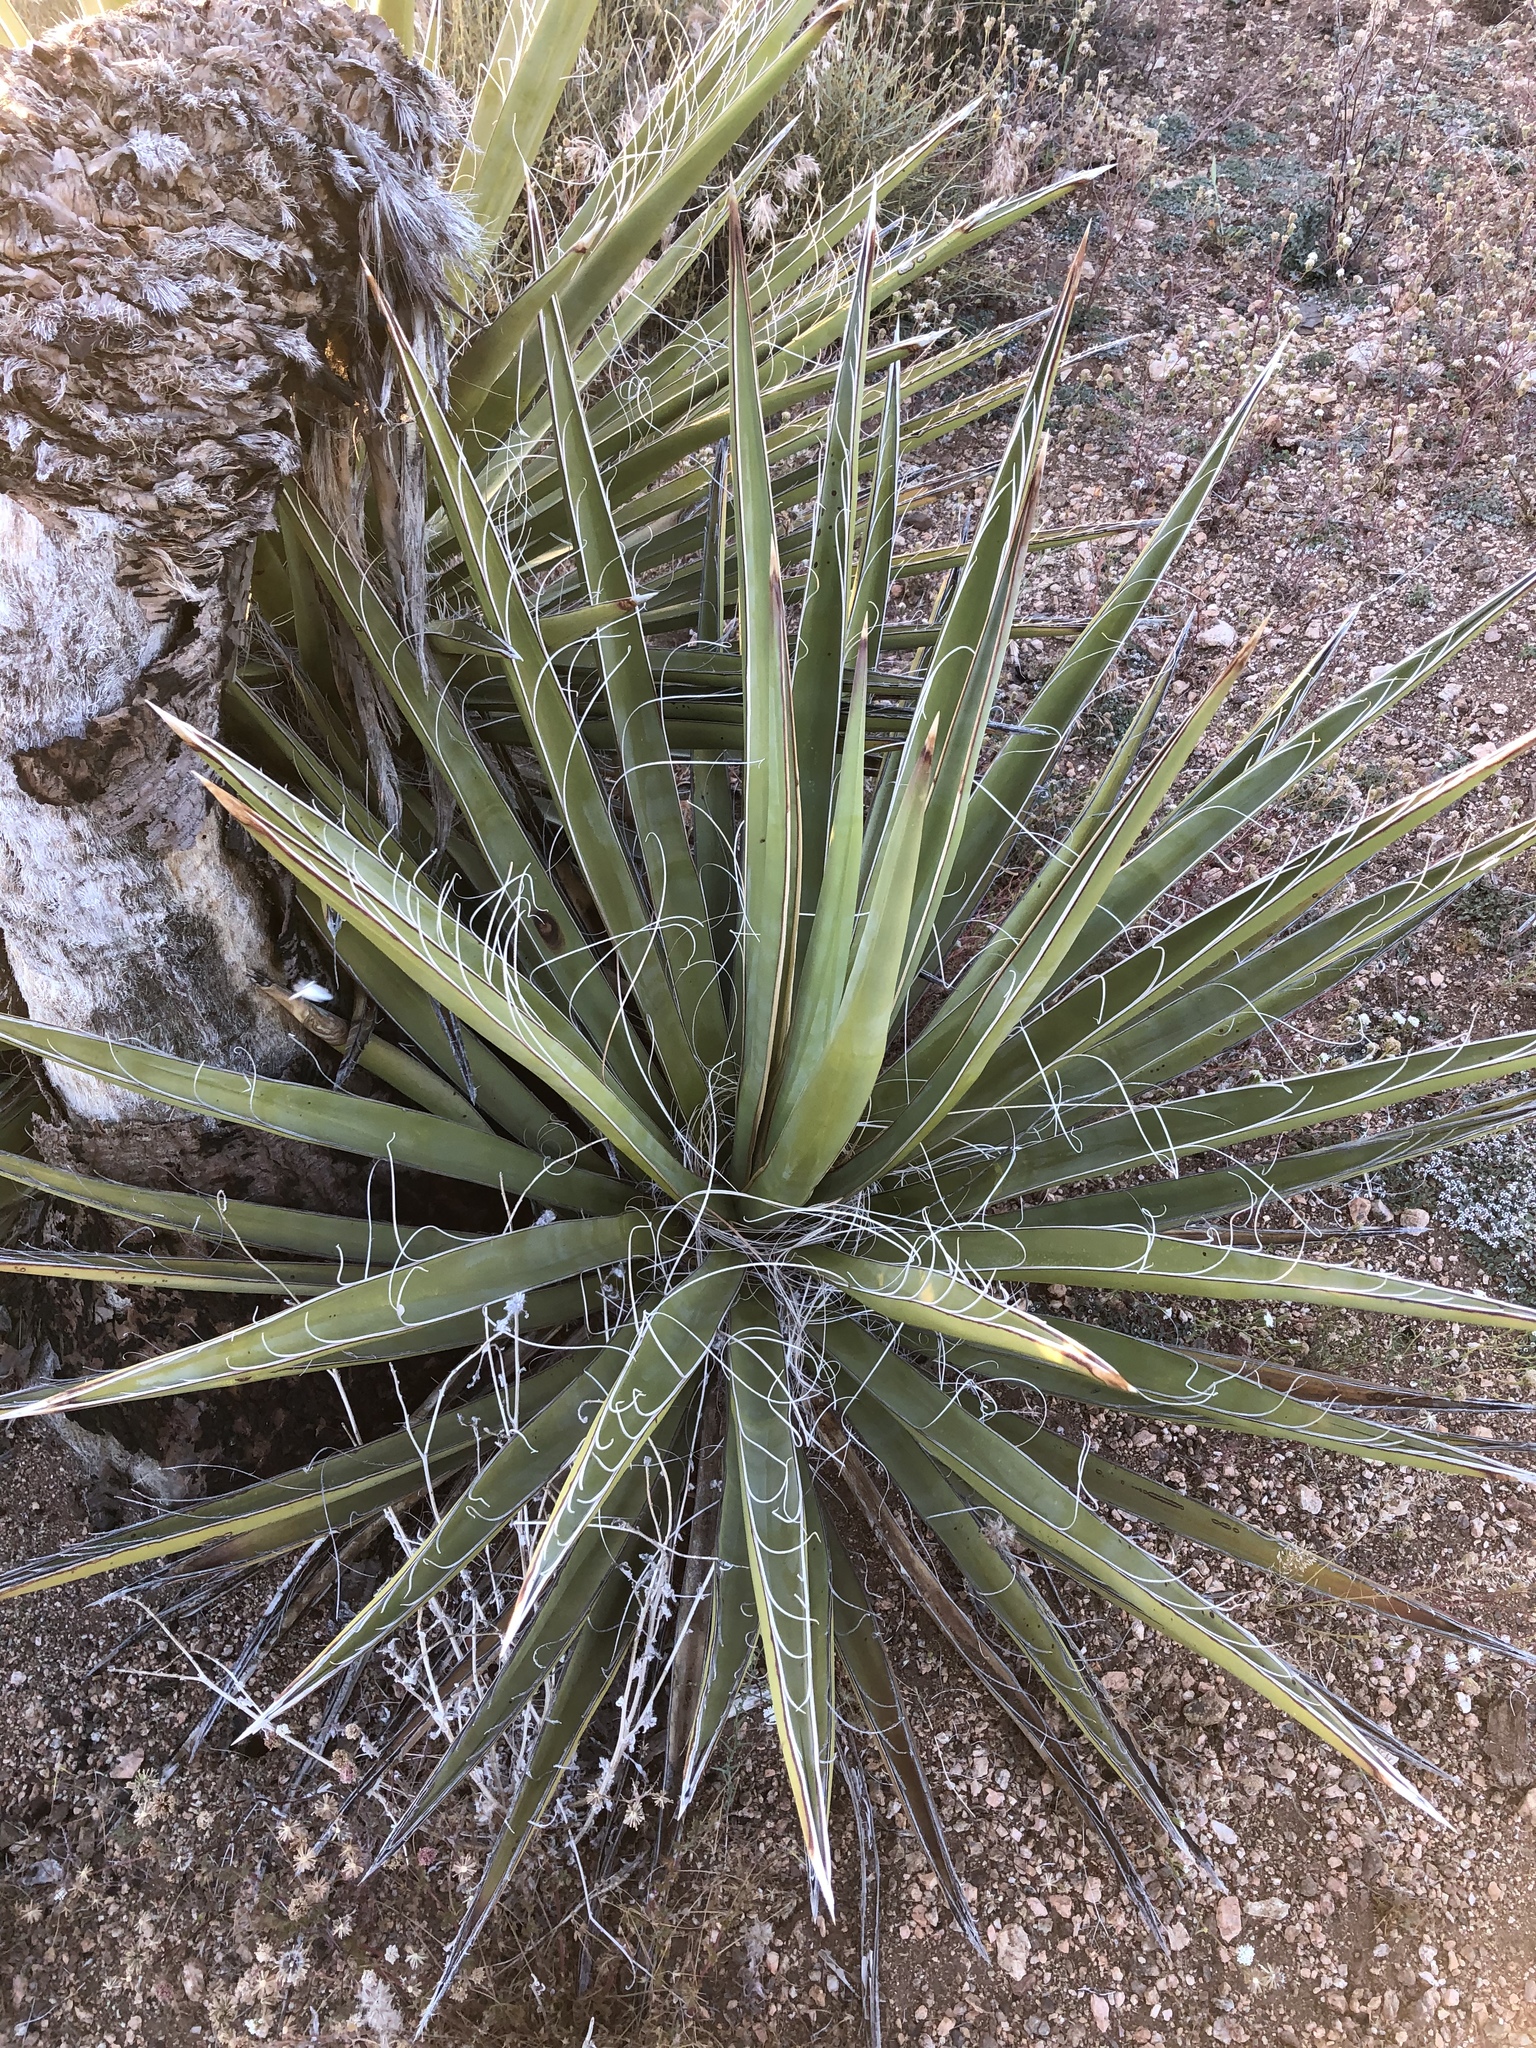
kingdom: Plantae
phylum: Tracheophyta
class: Liliopsida
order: Asparagales
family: Asparagaceae
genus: Yucca
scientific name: Yucca schidigera
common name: Mojave yucca
